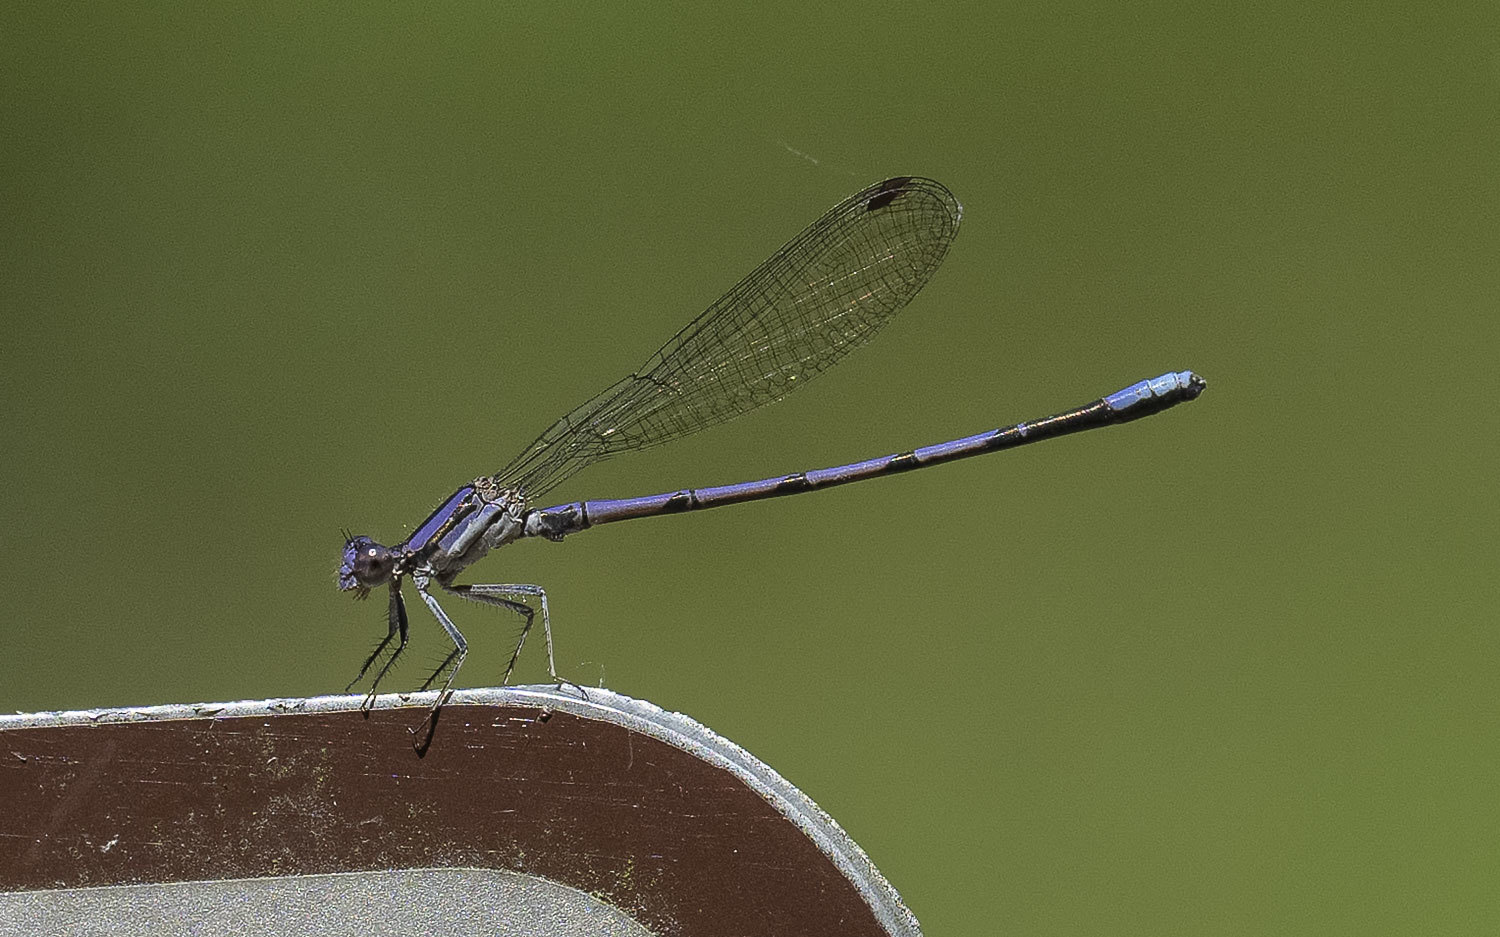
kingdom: Animalia
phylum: Arthropoda
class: Insecta
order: Odonata
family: Coenagrionidae
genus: Argia
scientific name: Argia fumipennis
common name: Variable dancer
